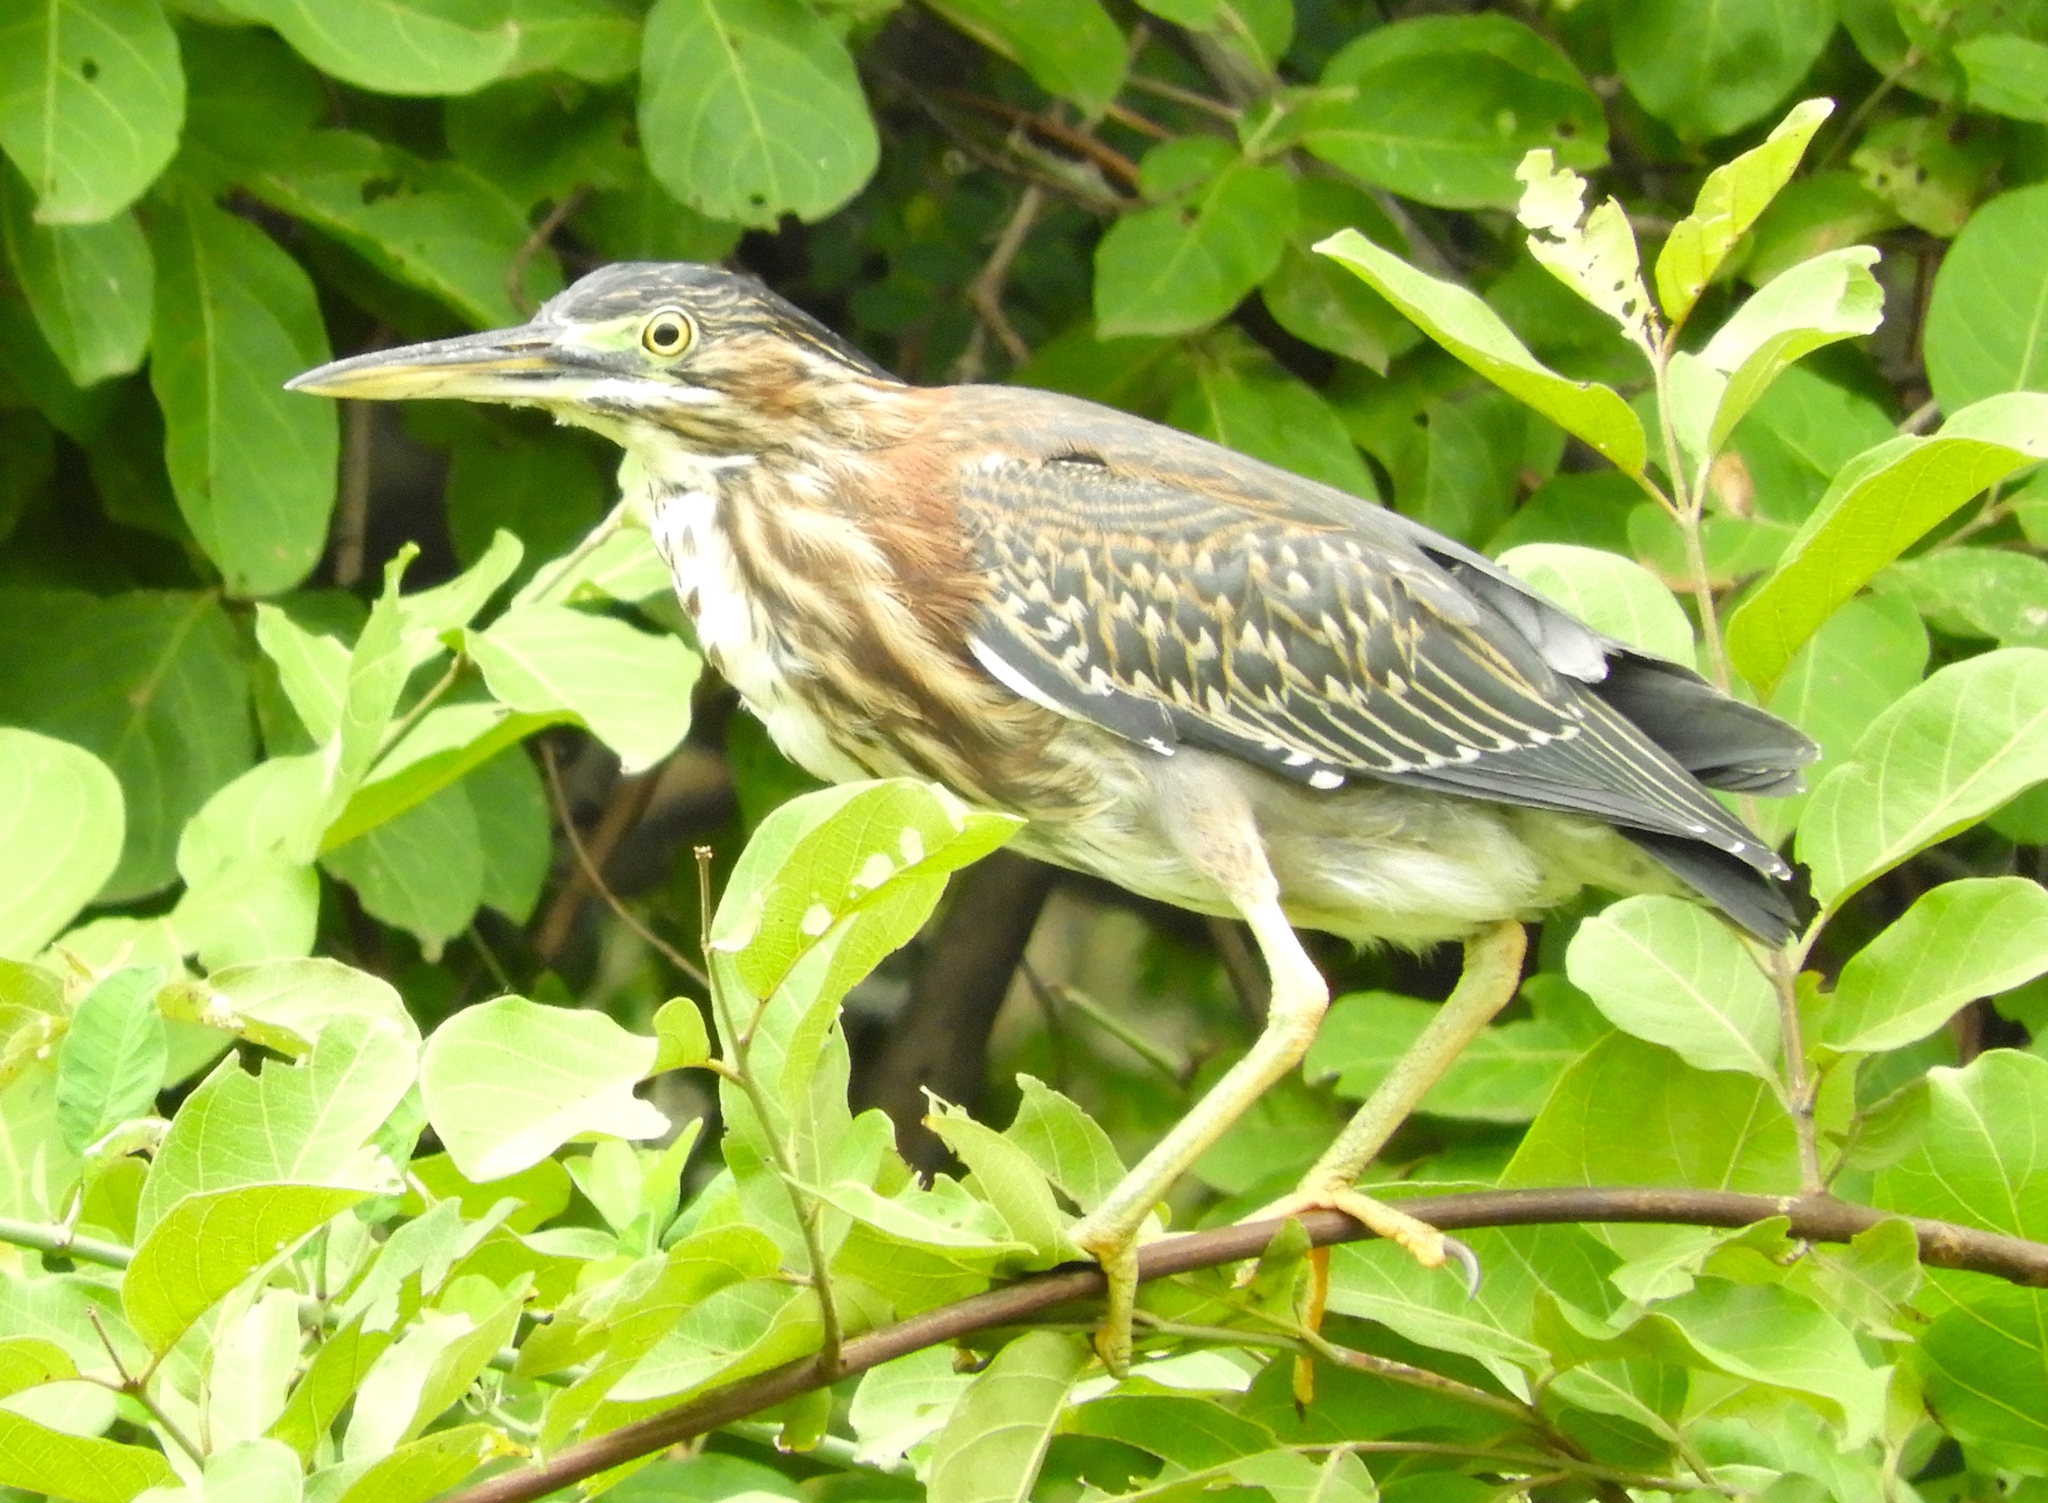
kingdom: Animalia
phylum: Chordata
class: Aves
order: Pelecaniformes
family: Ardeidae
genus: Butorides
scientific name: Butorides virescens
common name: Green heron
